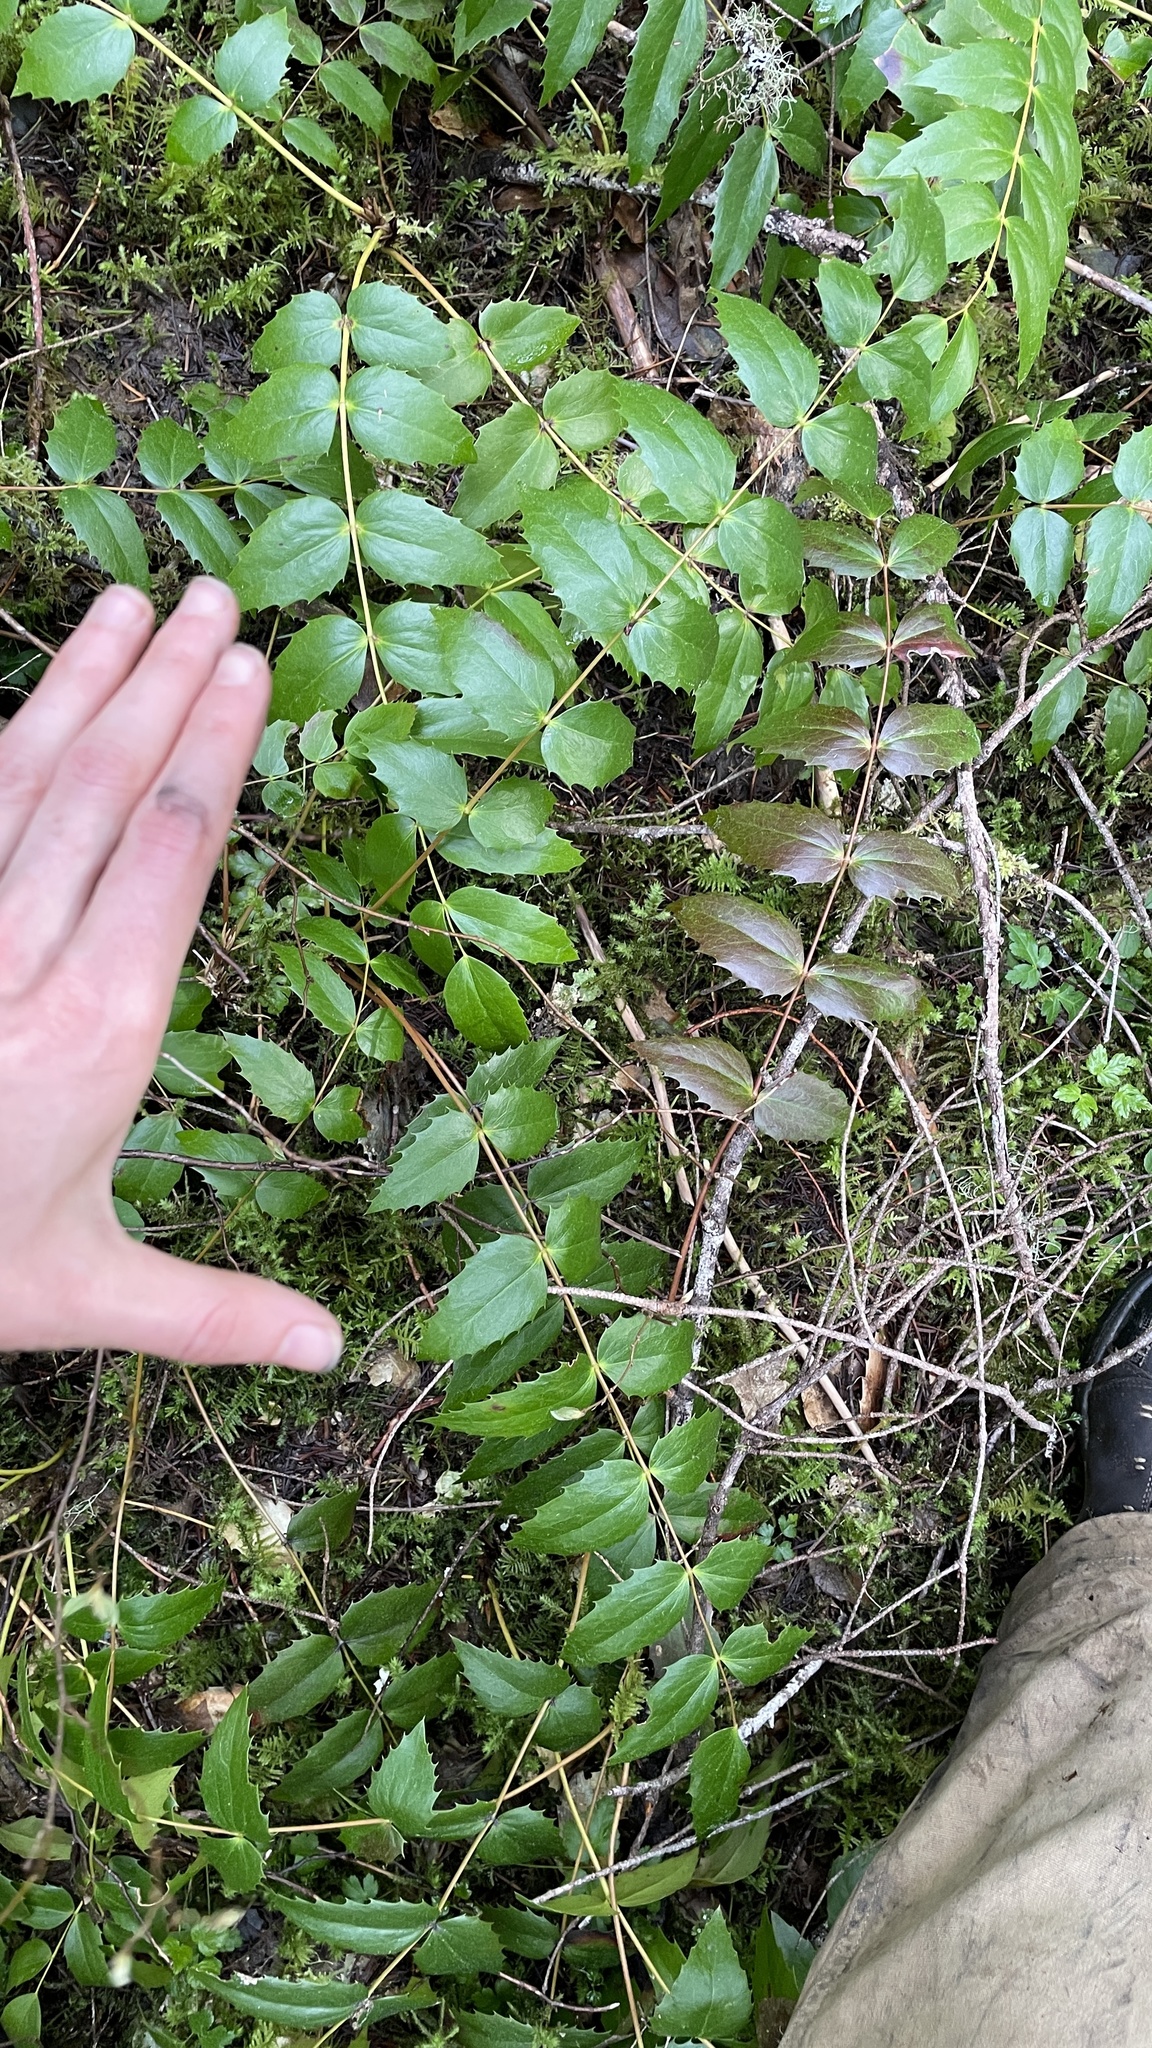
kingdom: Plantae
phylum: Tracheophyta
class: Magnoliopsida
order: Ranunculales
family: Berberidaceae
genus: Mahonia
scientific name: Mahonia nervosa
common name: Cascade oregon-grape
